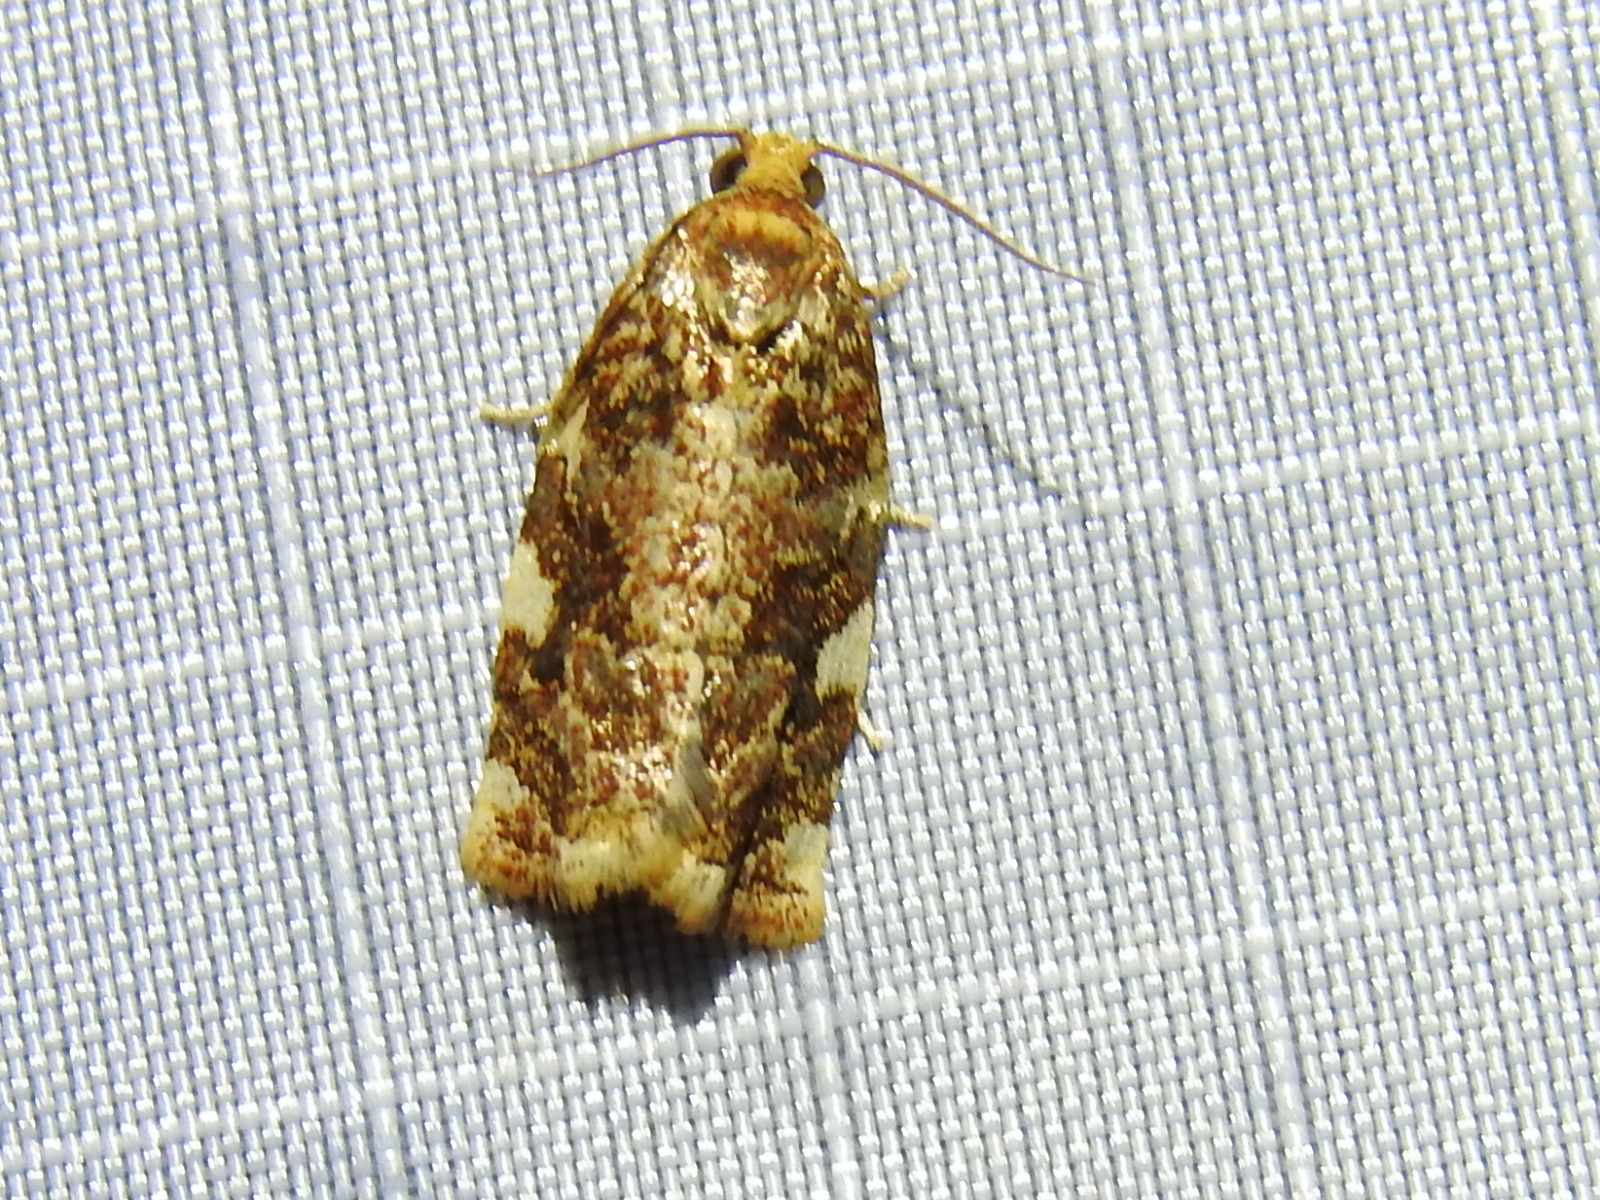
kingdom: Animalia
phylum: Arthropoda
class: Insecta
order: Lepidoptera
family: Tortricidae
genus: Archips
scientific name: Archips argyrospila
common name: Fruit-tree leafroller moth
